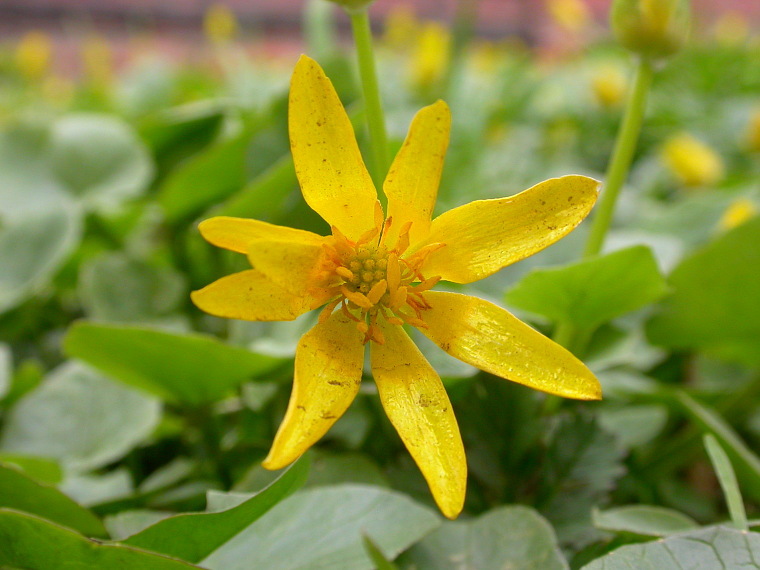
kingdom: Plantae
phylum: Tracheophyta
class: Magnoliopsida
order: Ranunculales
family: Ranunculaceae
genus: Ficaria
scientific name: Ficaria verna
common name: Lesser celandine
